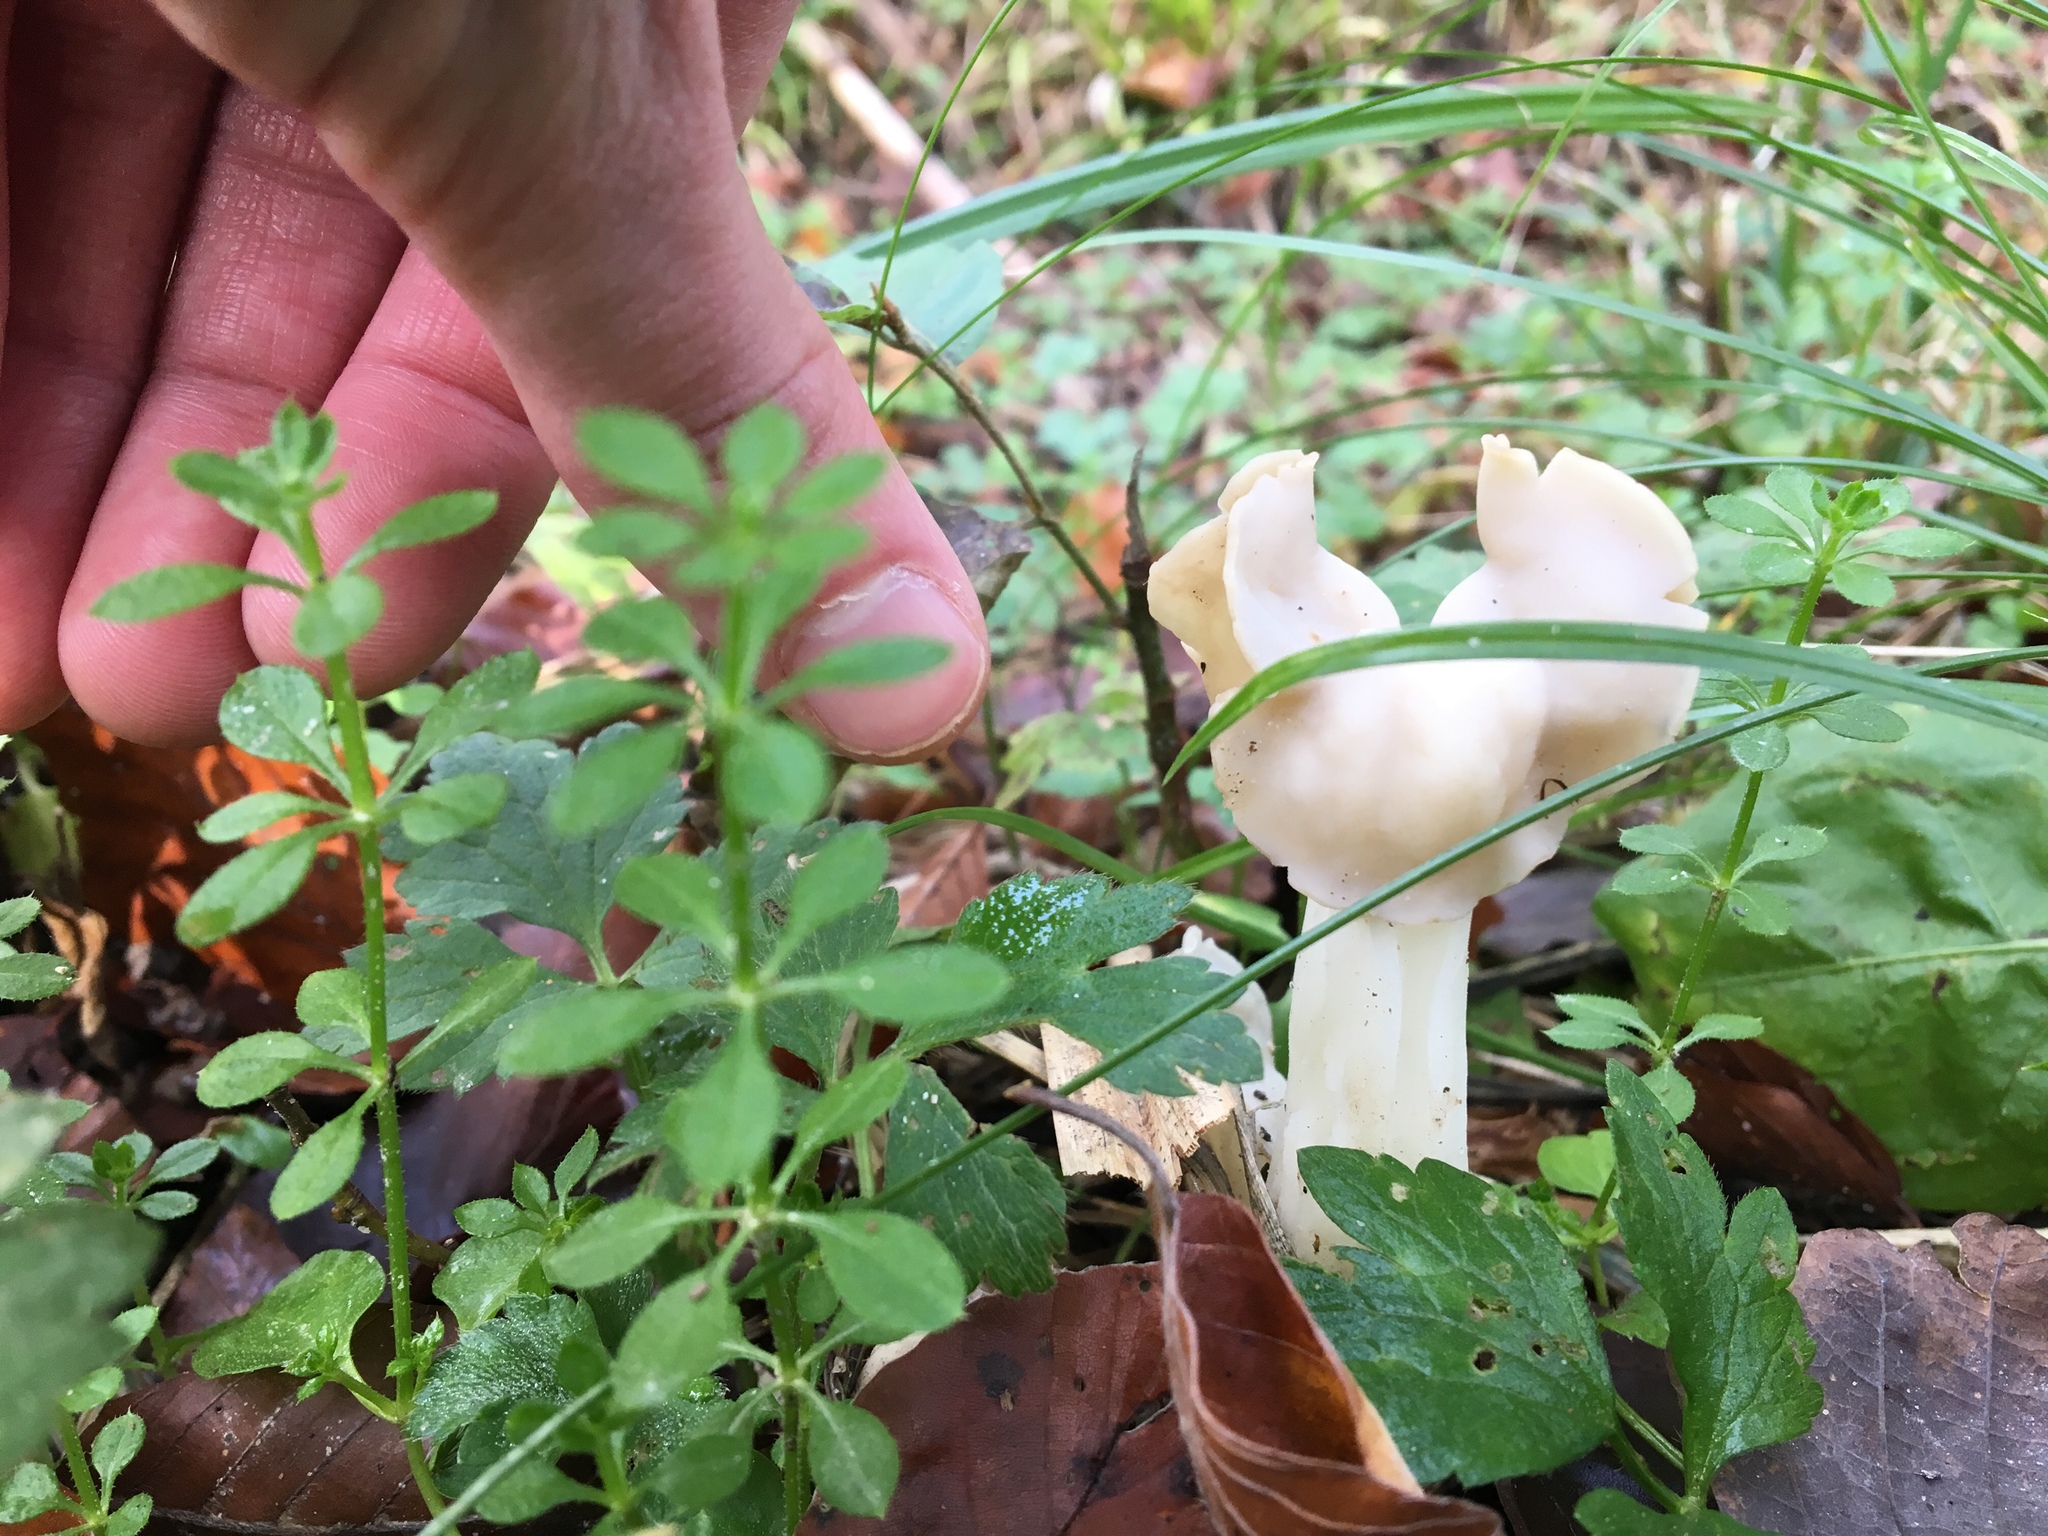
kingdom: Fungi
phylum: Ascomycota
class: Pezizomycetes
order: Pezizales
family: Helvellaceae
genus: Helvella
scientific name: Helvella crispa
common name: White saddle
